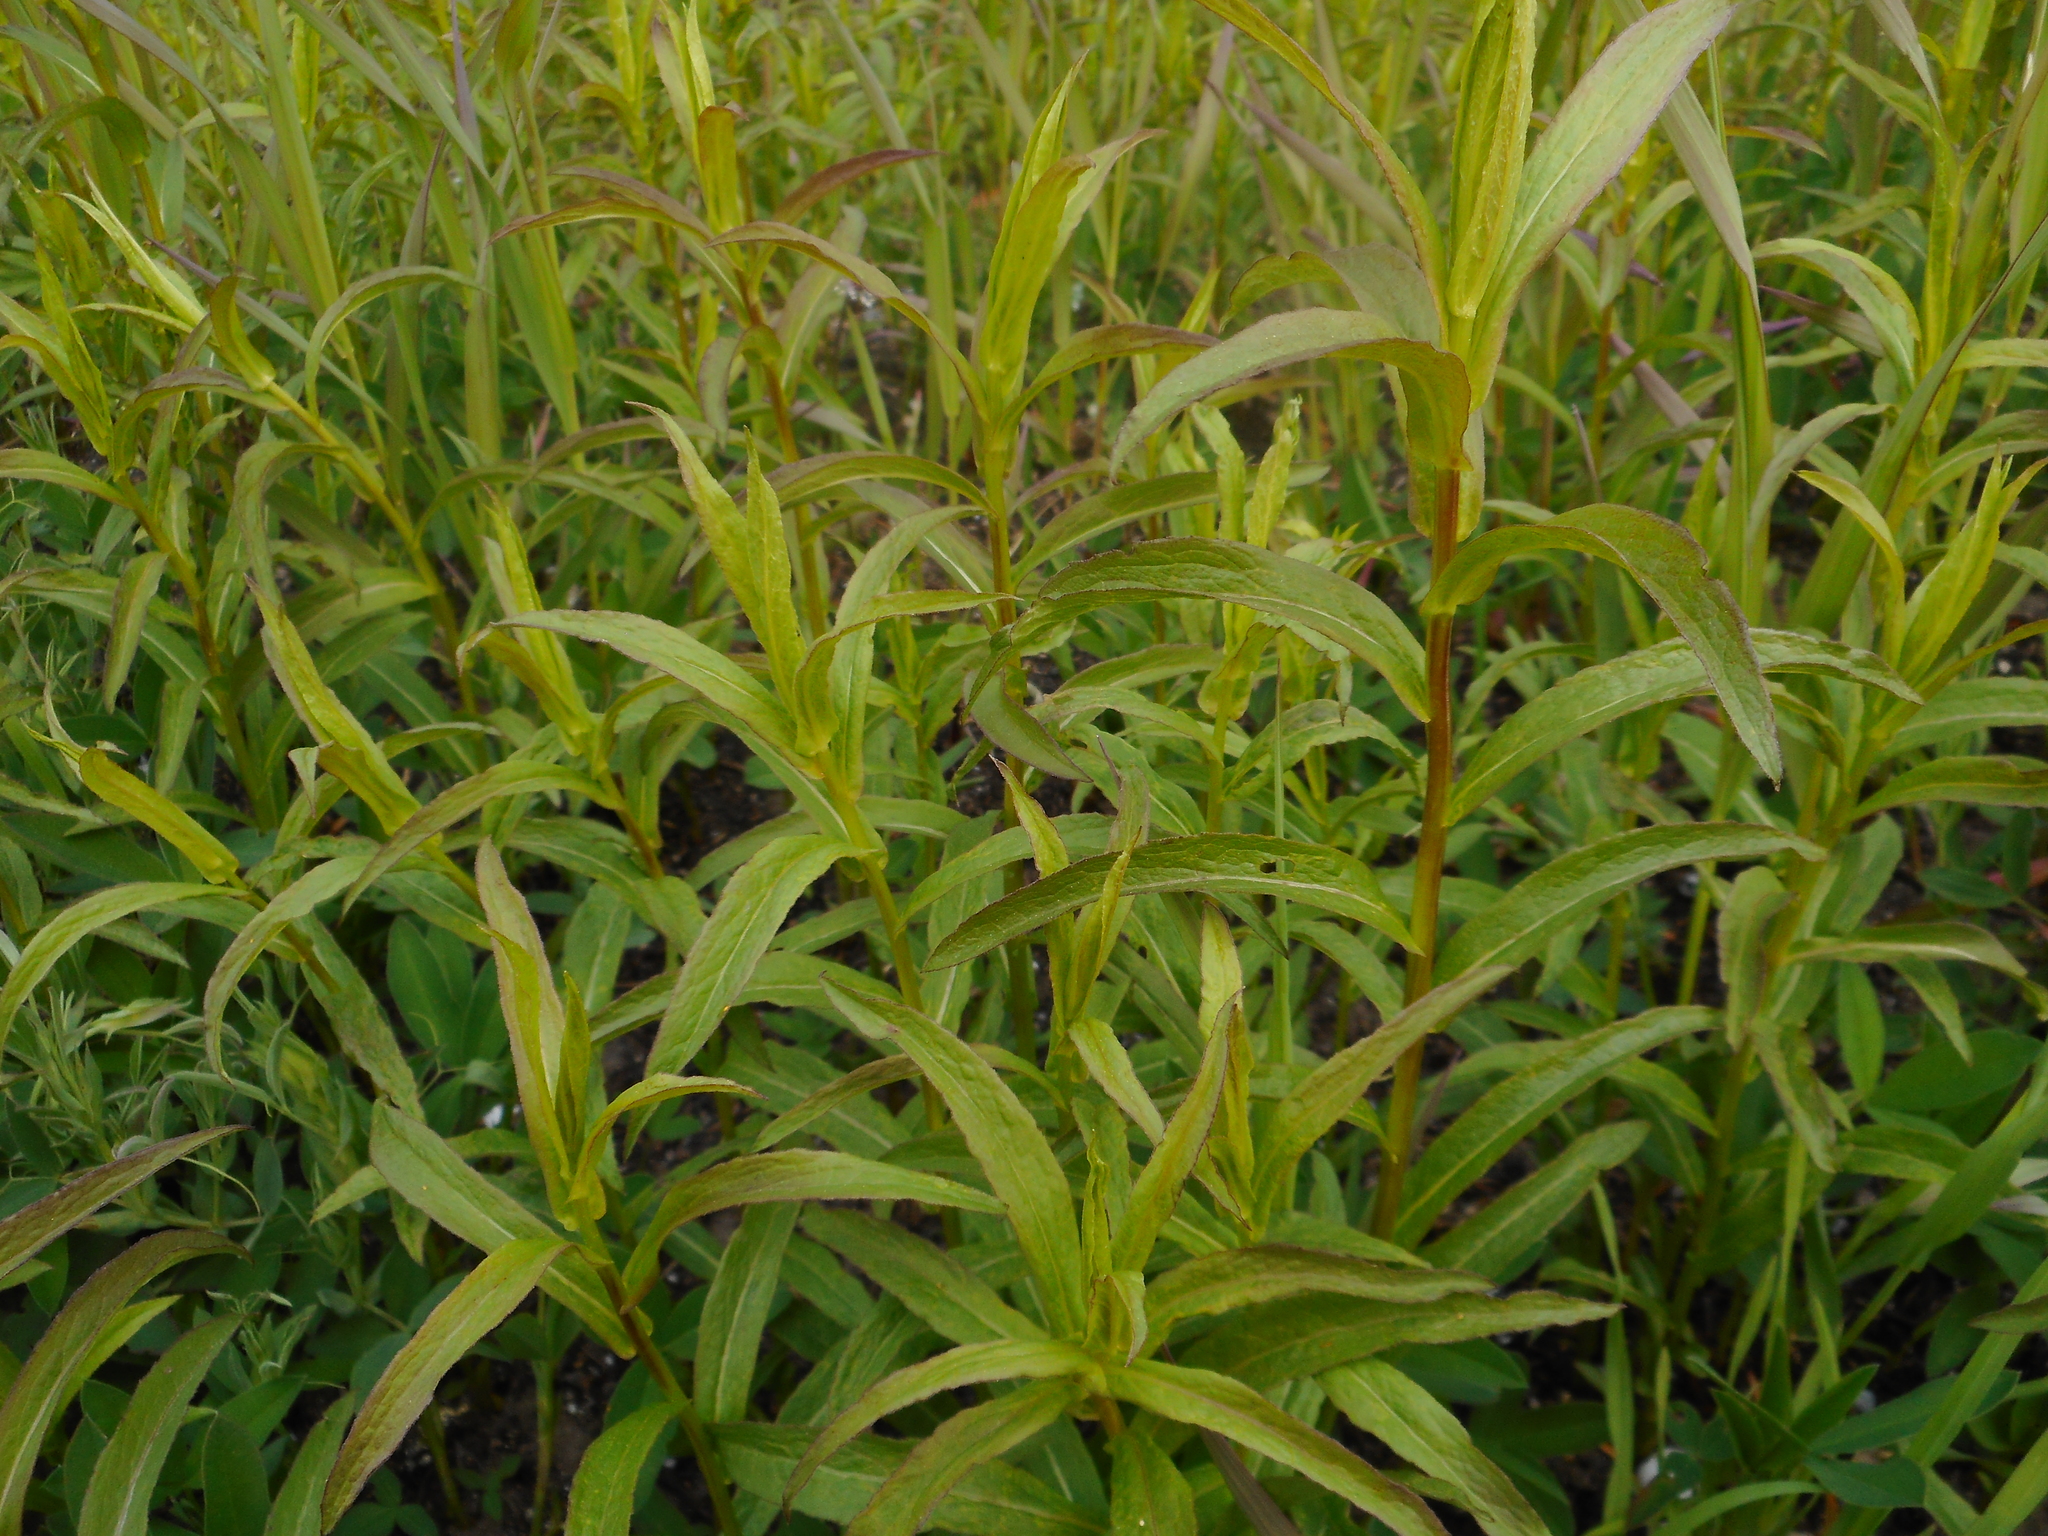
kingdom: Plantae
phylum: Tracheophyta
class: Magnoliopsida
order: Asterales
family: Asteraceae
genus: Pentanema
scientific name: Pentanema salicinum
